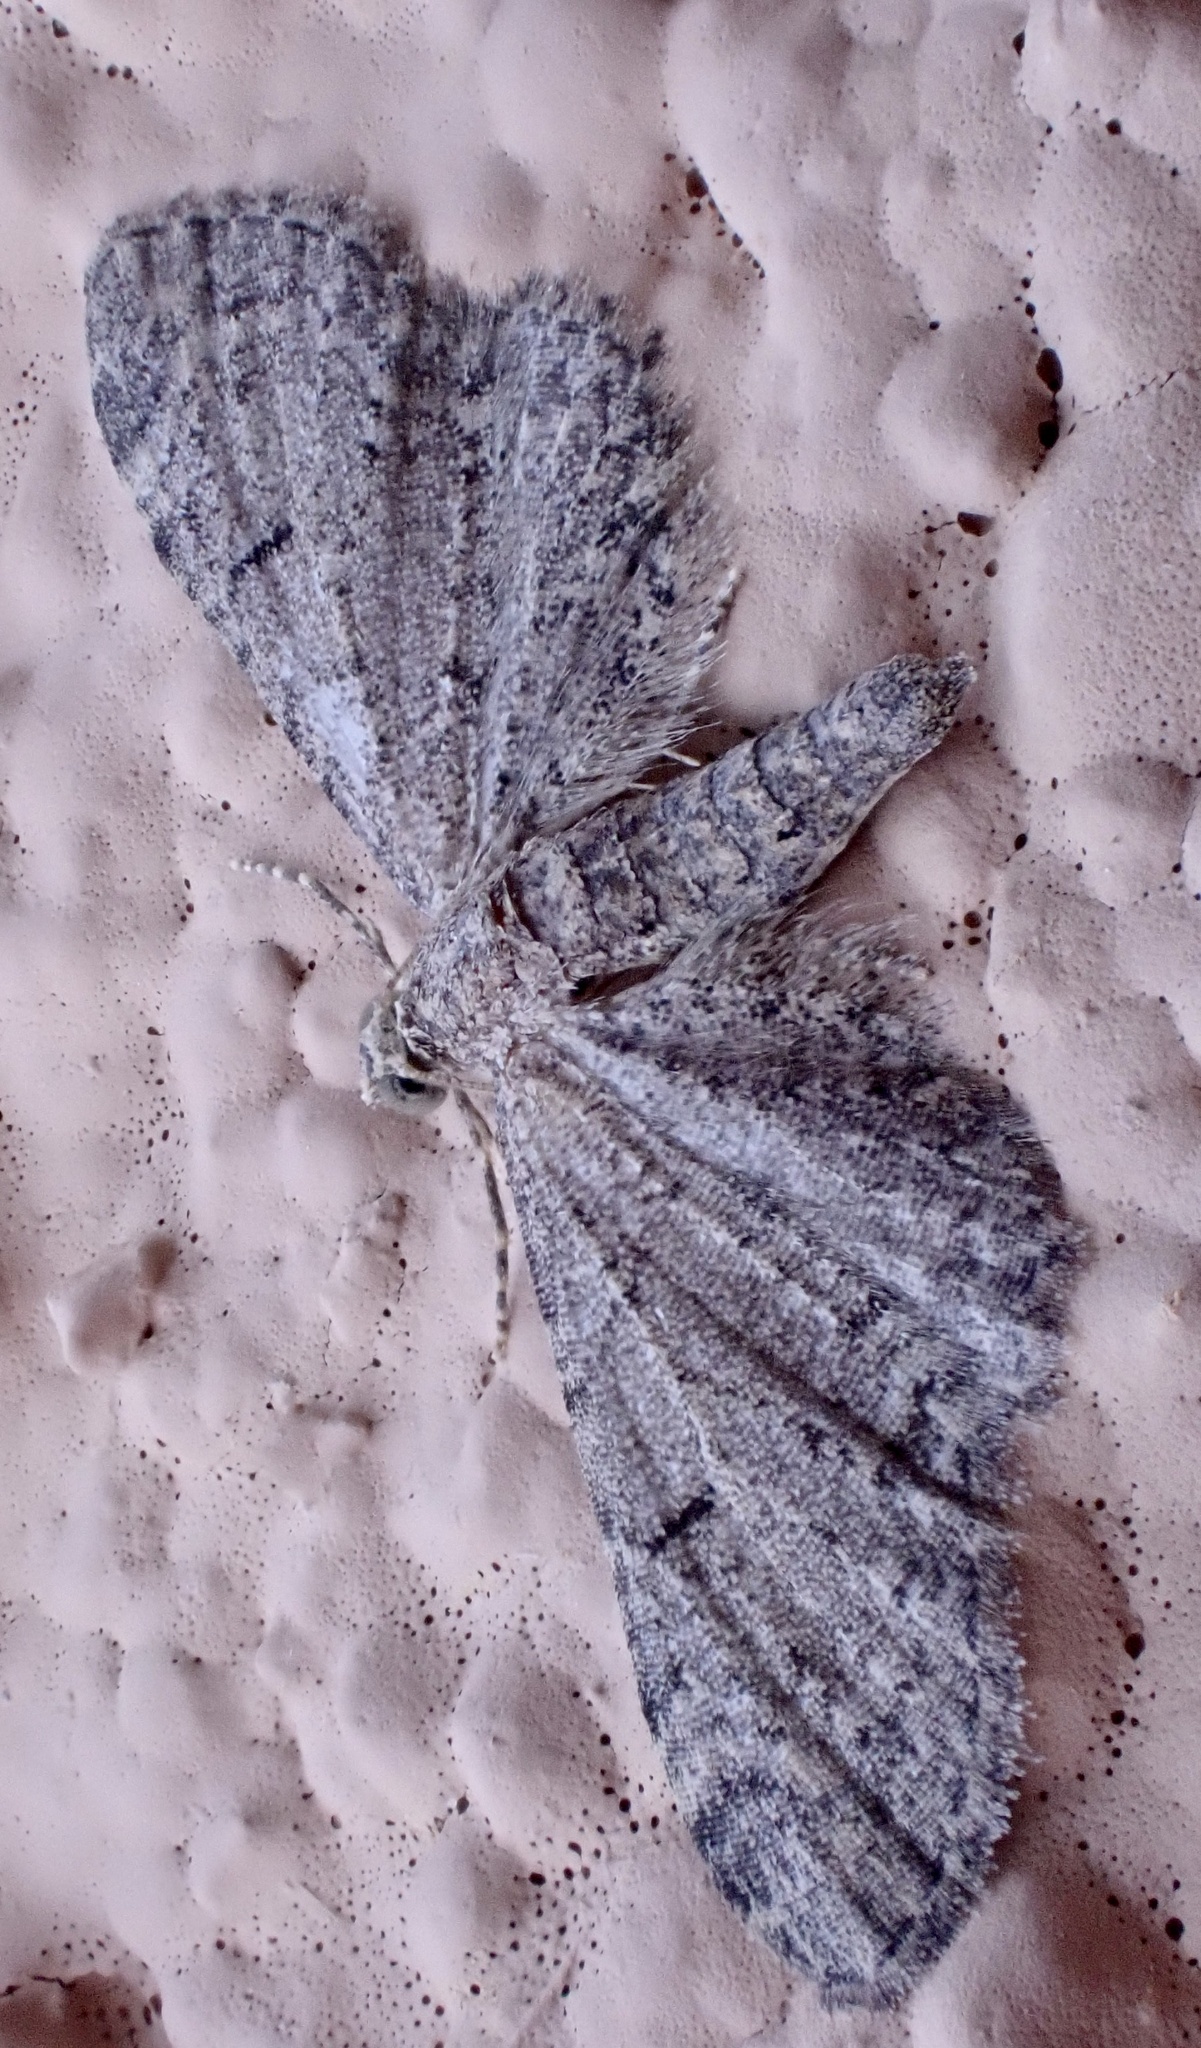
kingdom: Animalia
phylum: Arthropoda
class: Insecta
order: Lepidoptera
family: Geometridae
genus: Eupithecia
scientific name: Eupithecia ultimaria
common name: Channel islands pug
